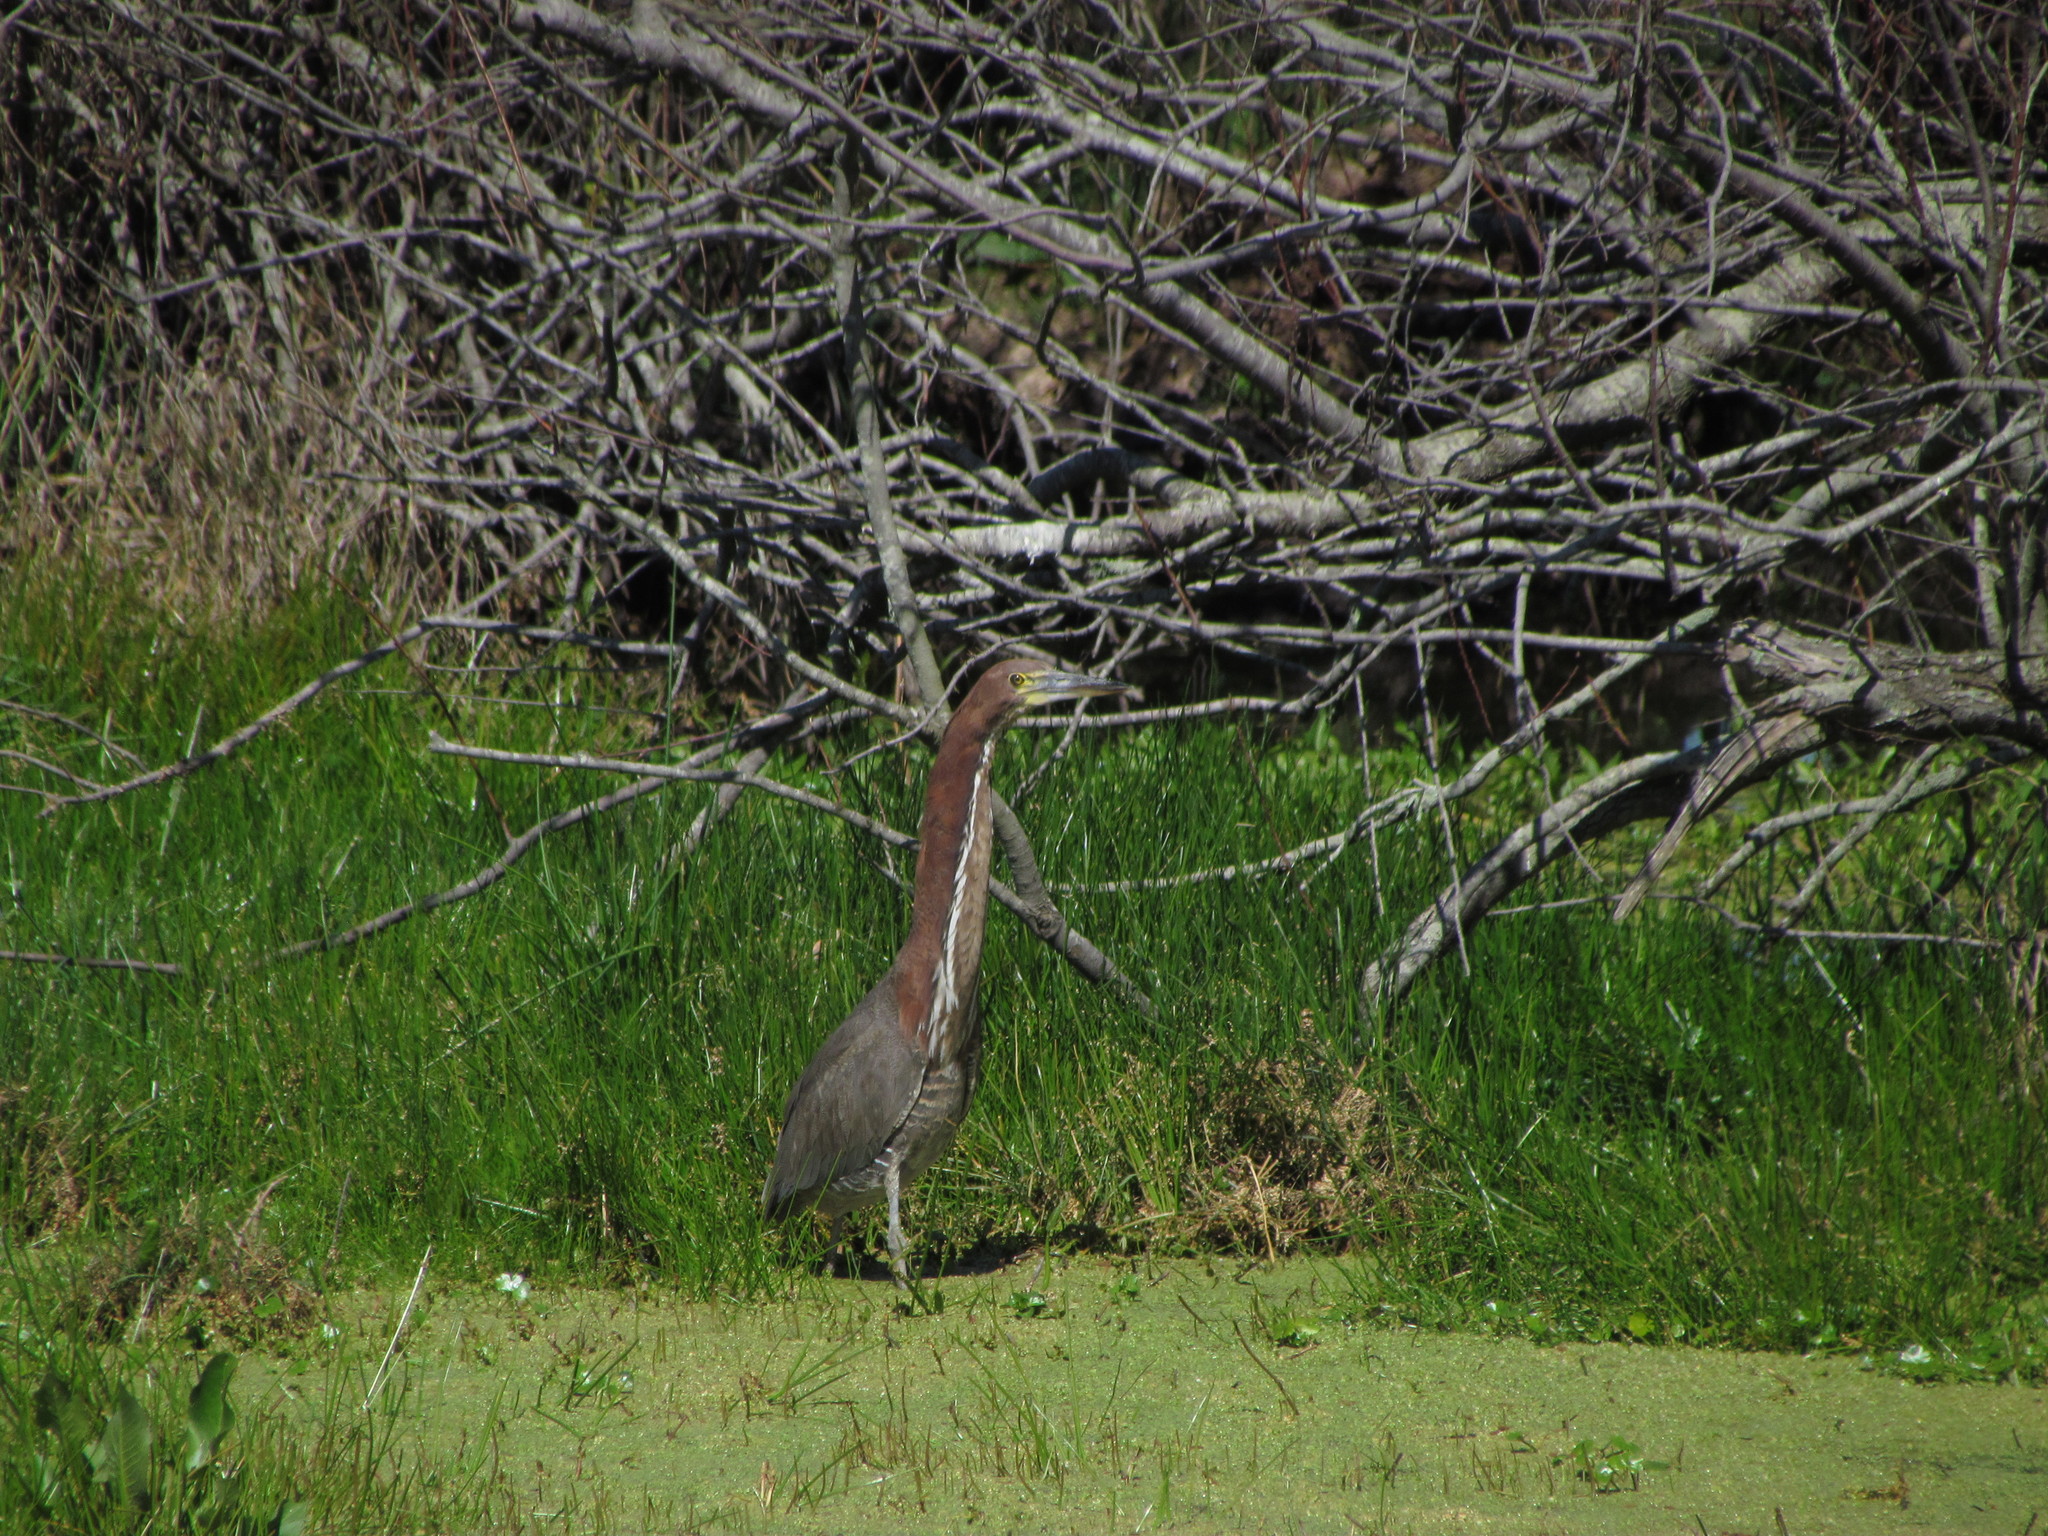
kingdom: Animalia
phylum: Chordata
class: Aves
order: Pelecaniformes
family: Ardeidae
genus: Tigrisoma
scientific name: Tigrisoma lineatum
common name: Rufescent tiger-heron
